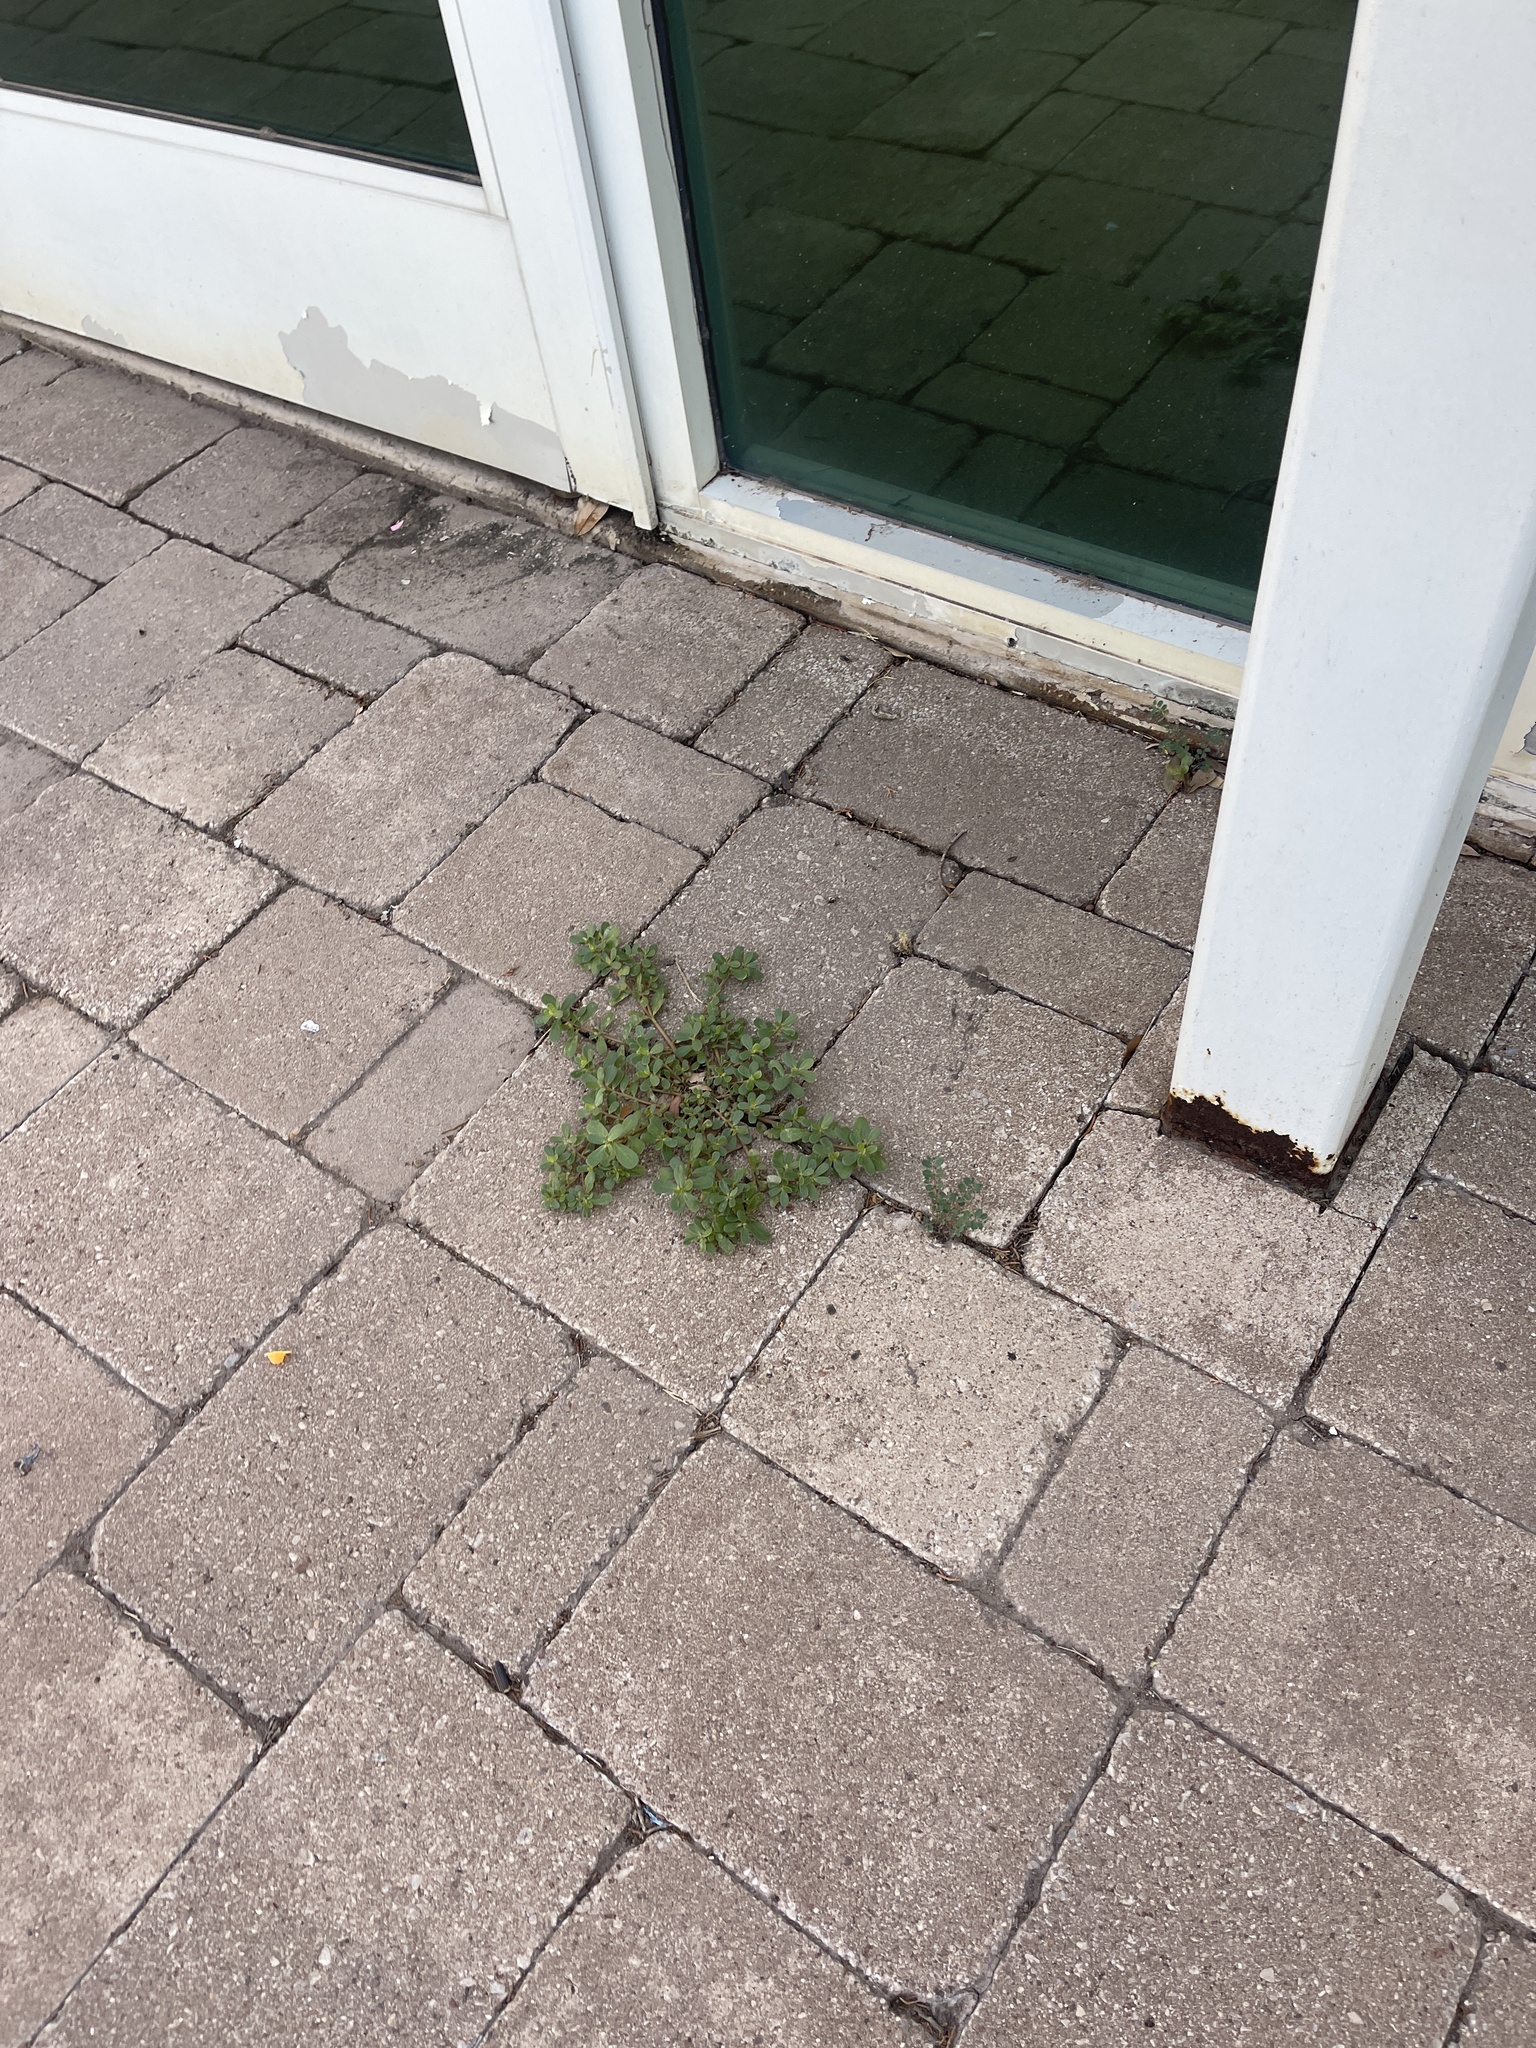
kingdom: Plantae
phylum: Tracheophyta
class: Magnoliopsida
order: Caryophyllales
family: Portulacaceae
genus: Portulaca
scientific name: Portulaca oleracea
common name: Common purslane
